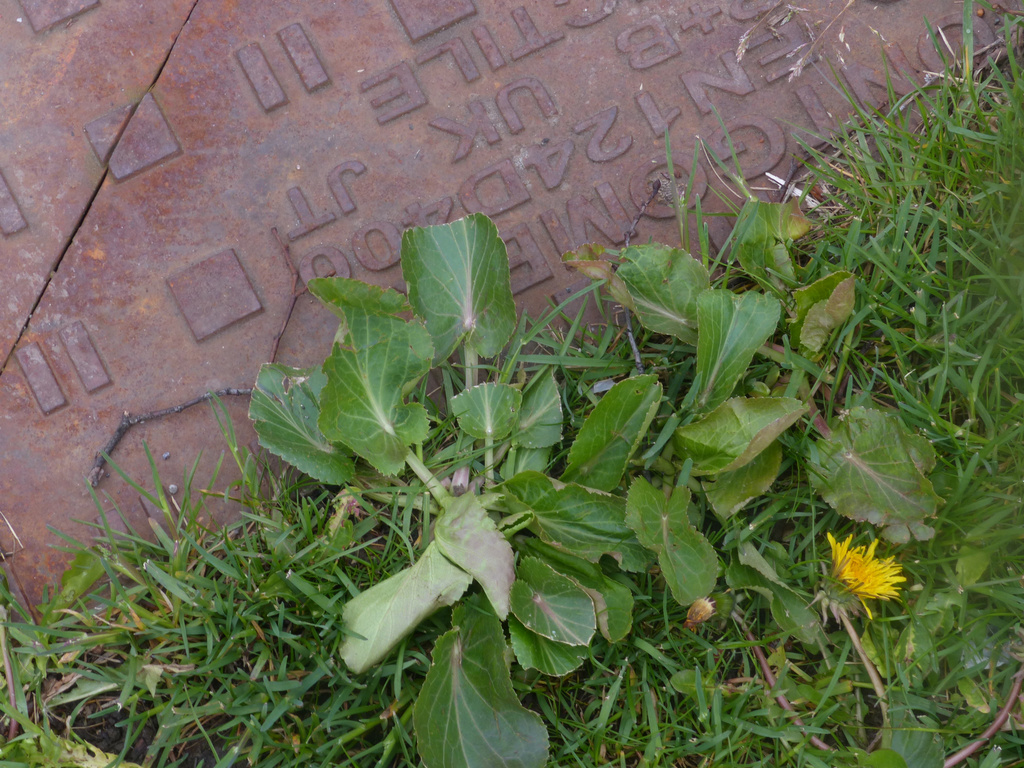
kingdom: Plantae
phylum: Tracheophyta
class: Magnoliopsida
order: Apiales
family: Apiaceae
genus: Eryngium
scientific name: Eryngium planum
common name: Blue eryngo
